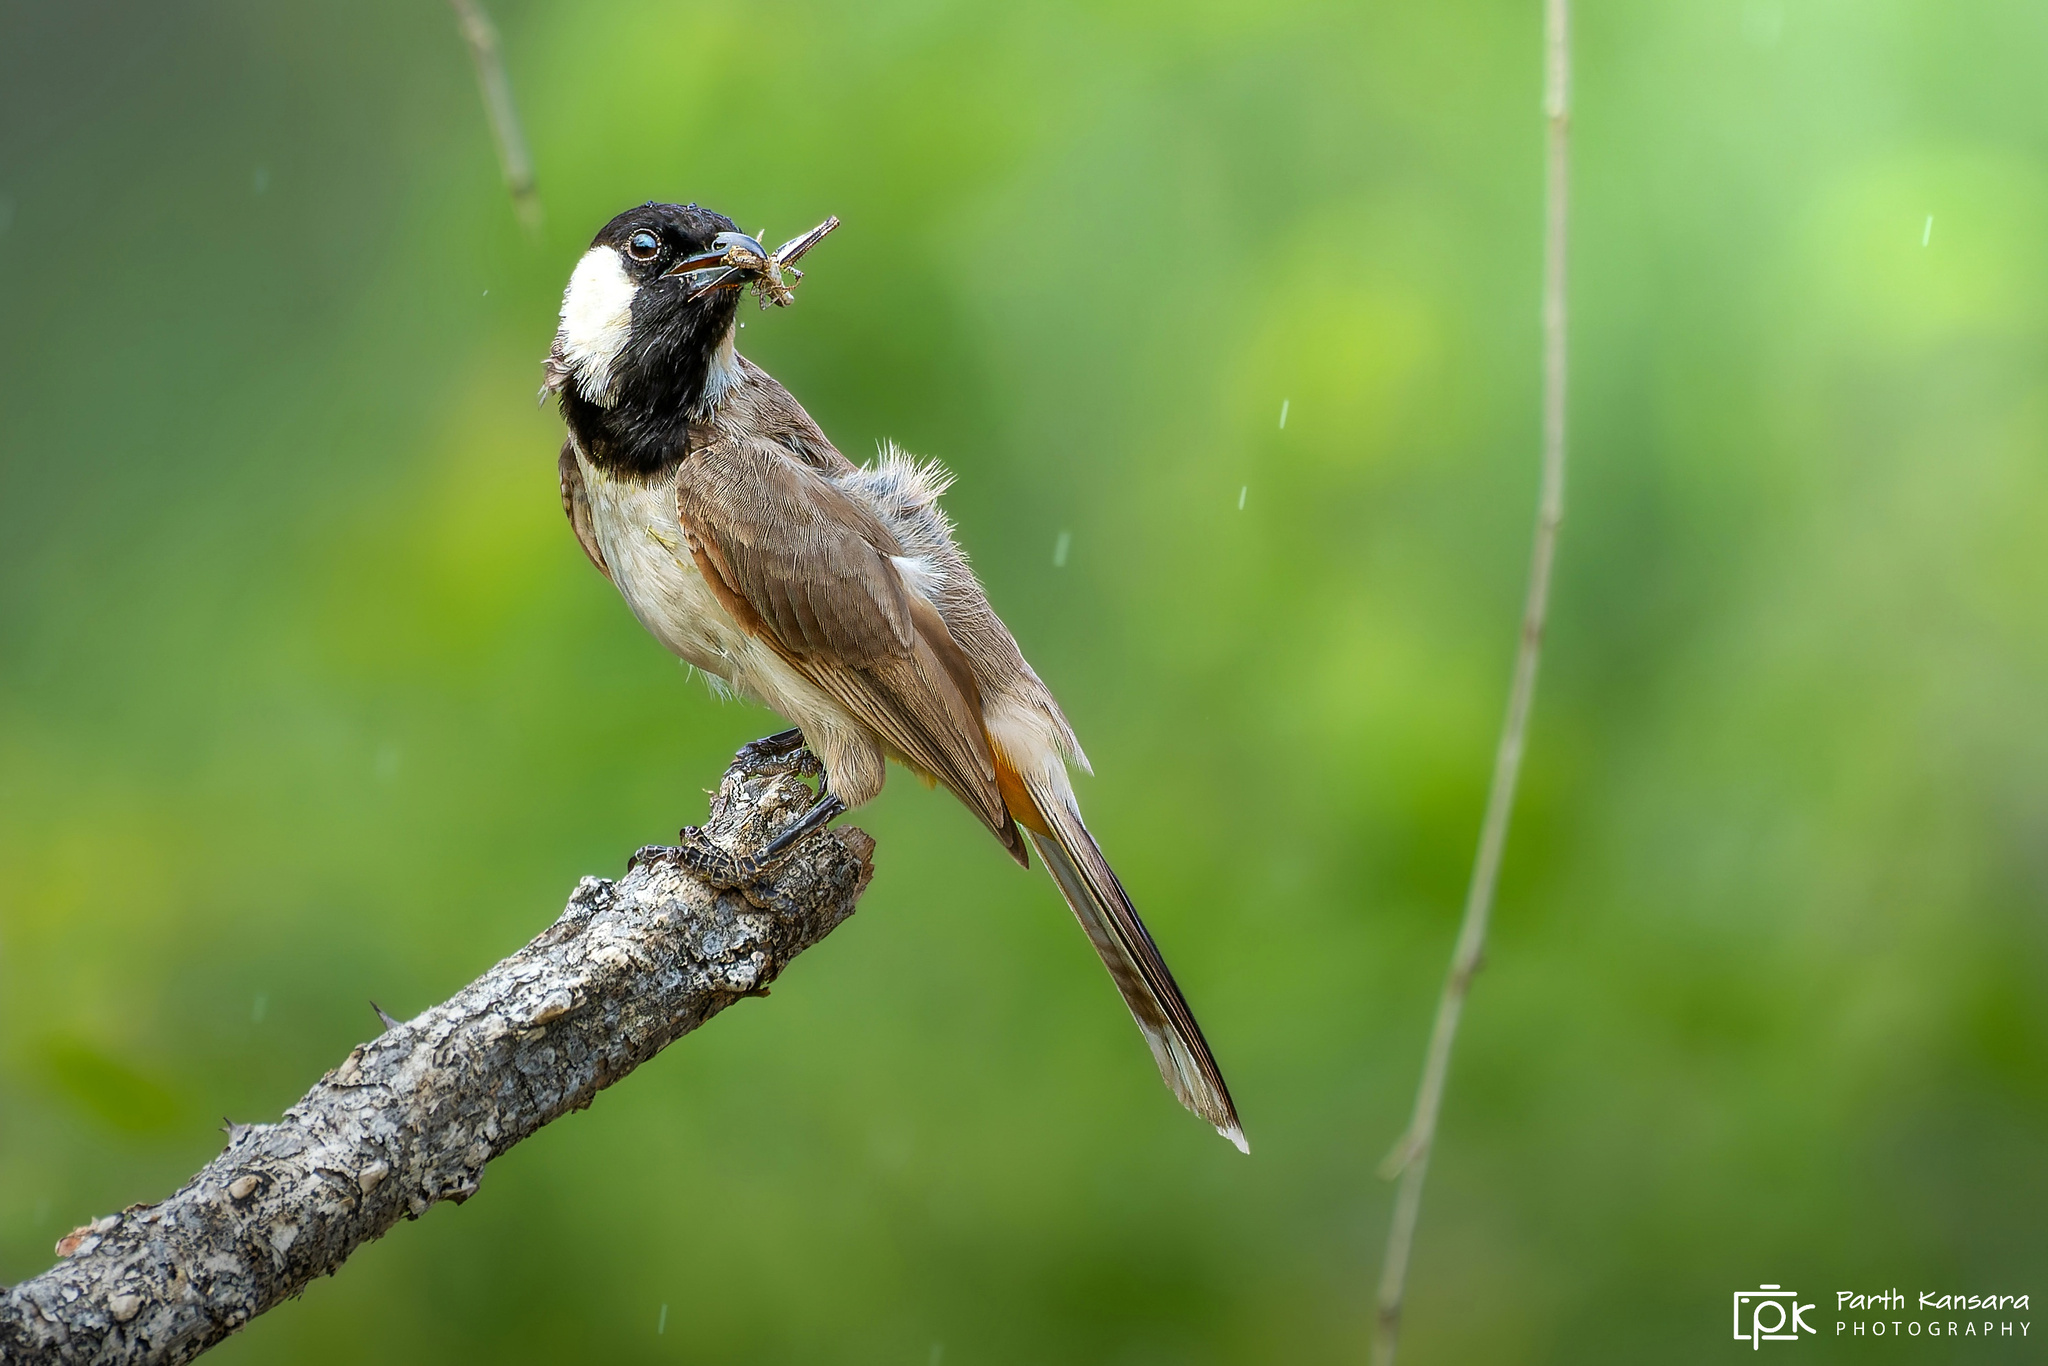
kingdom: Animalia
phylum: Chordata
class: Aves
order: Passeriformes
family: Pycnonotidae
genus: Pycnonotus
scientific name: Pycnonotus leucotis
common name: White-eared bulbul
